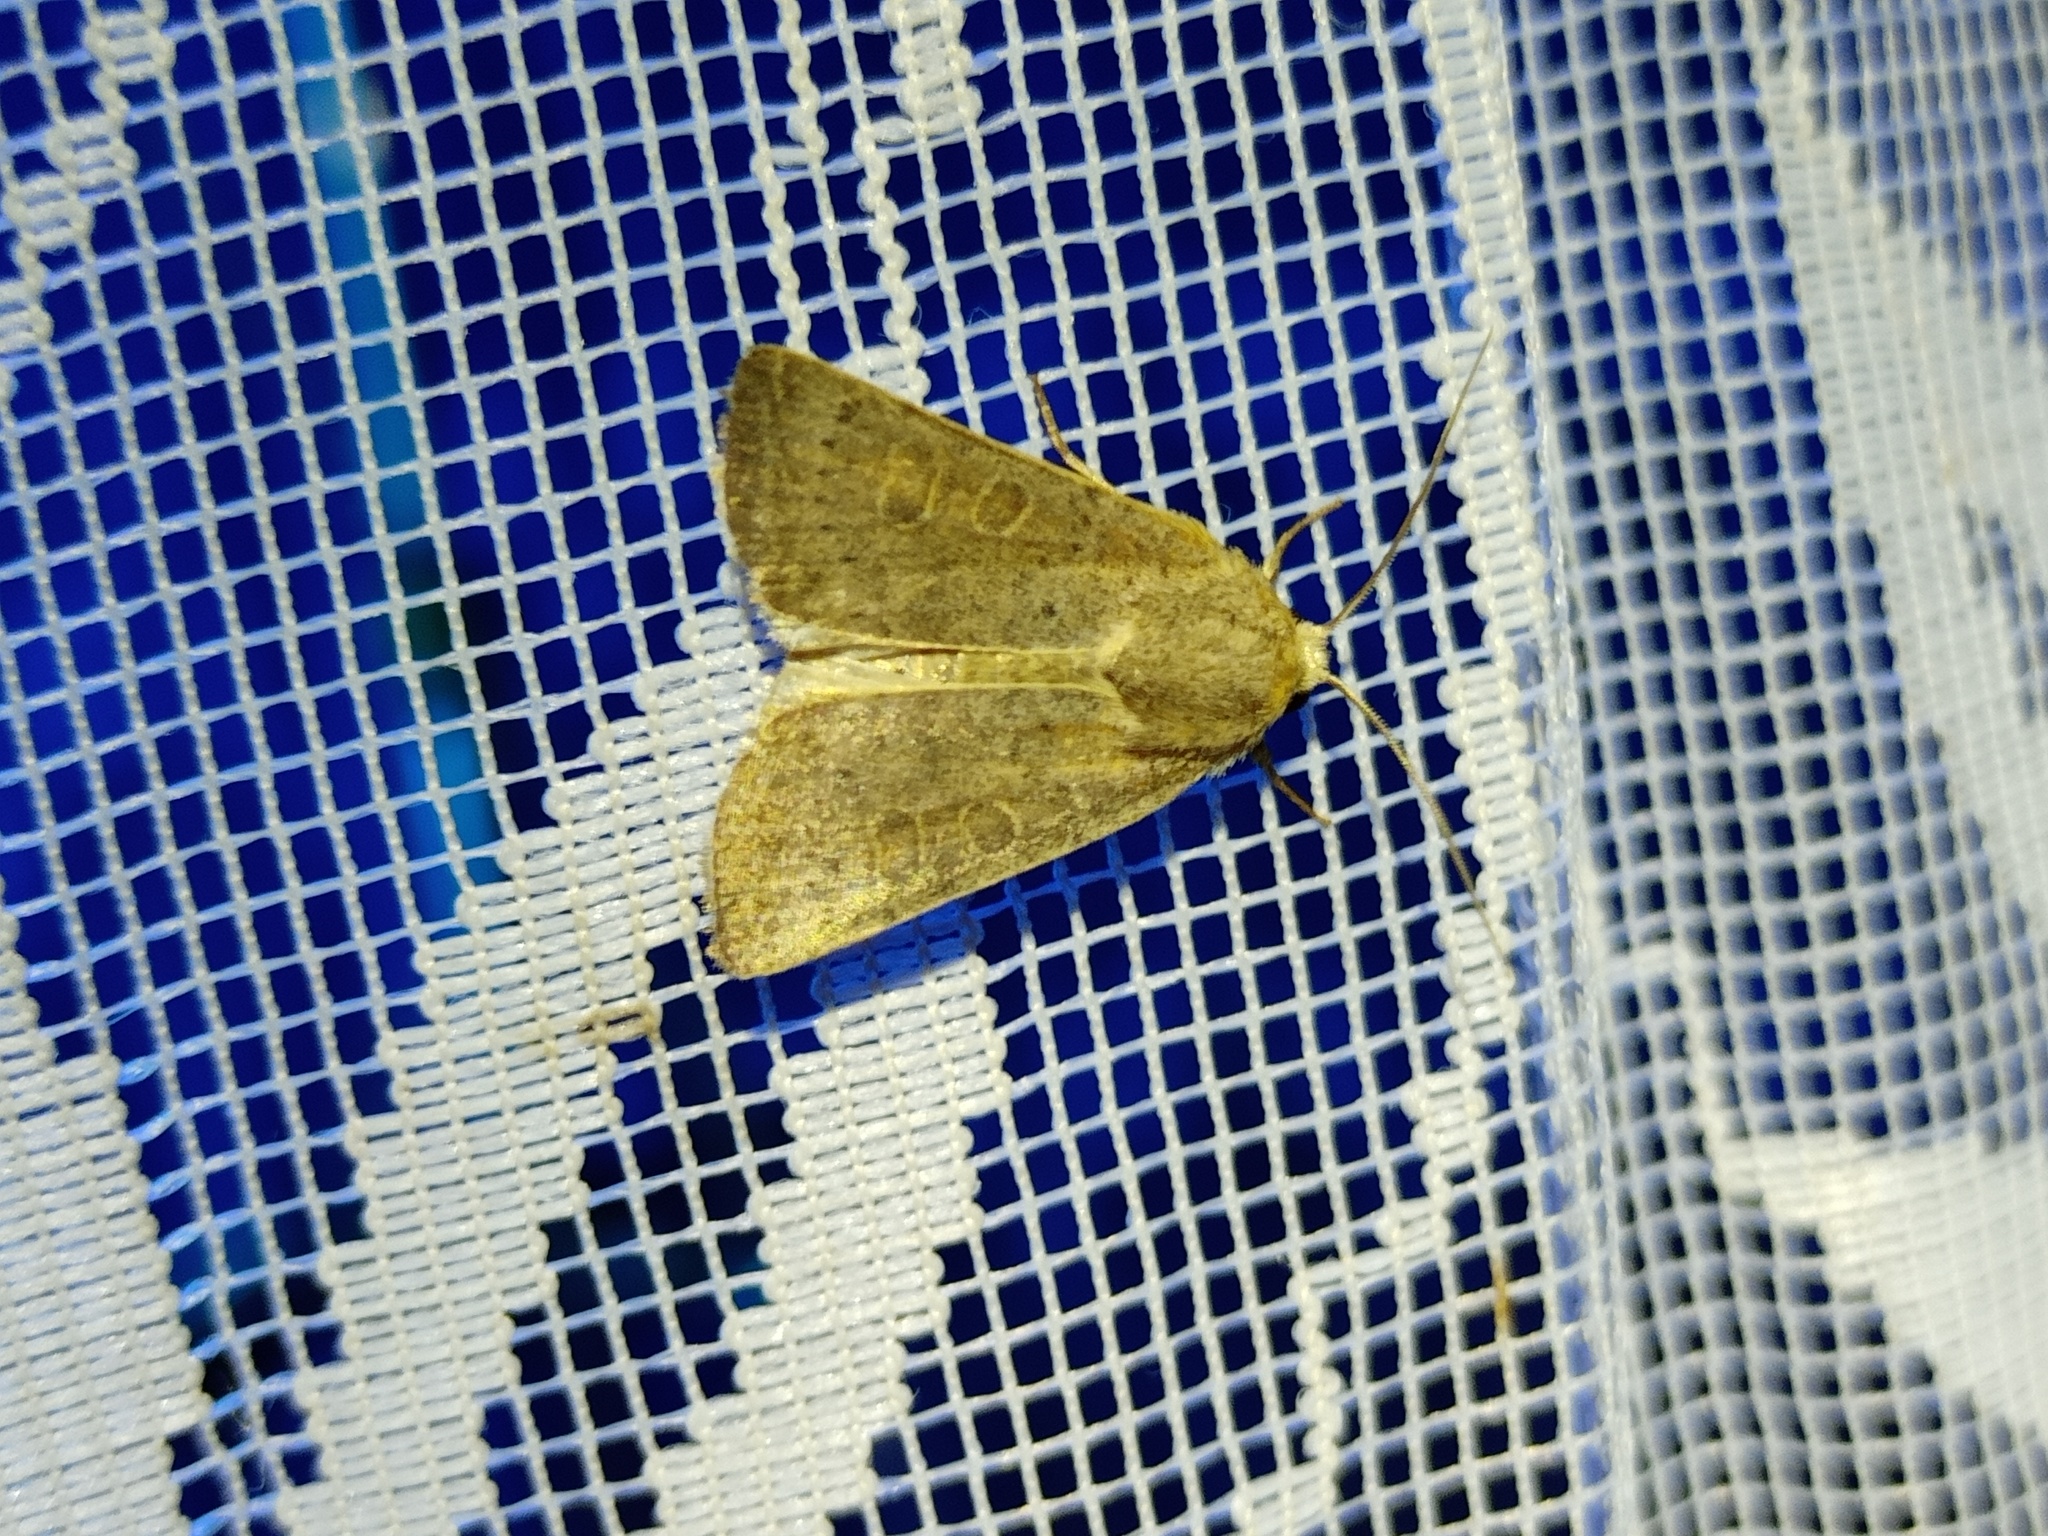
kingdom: Animalia
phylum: Arthropoda
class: Insecta
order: Lepidoptera
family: Noctuidae
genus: Hoplodrina
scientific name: Hoplodrina ambigua
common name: Vine's rustic
